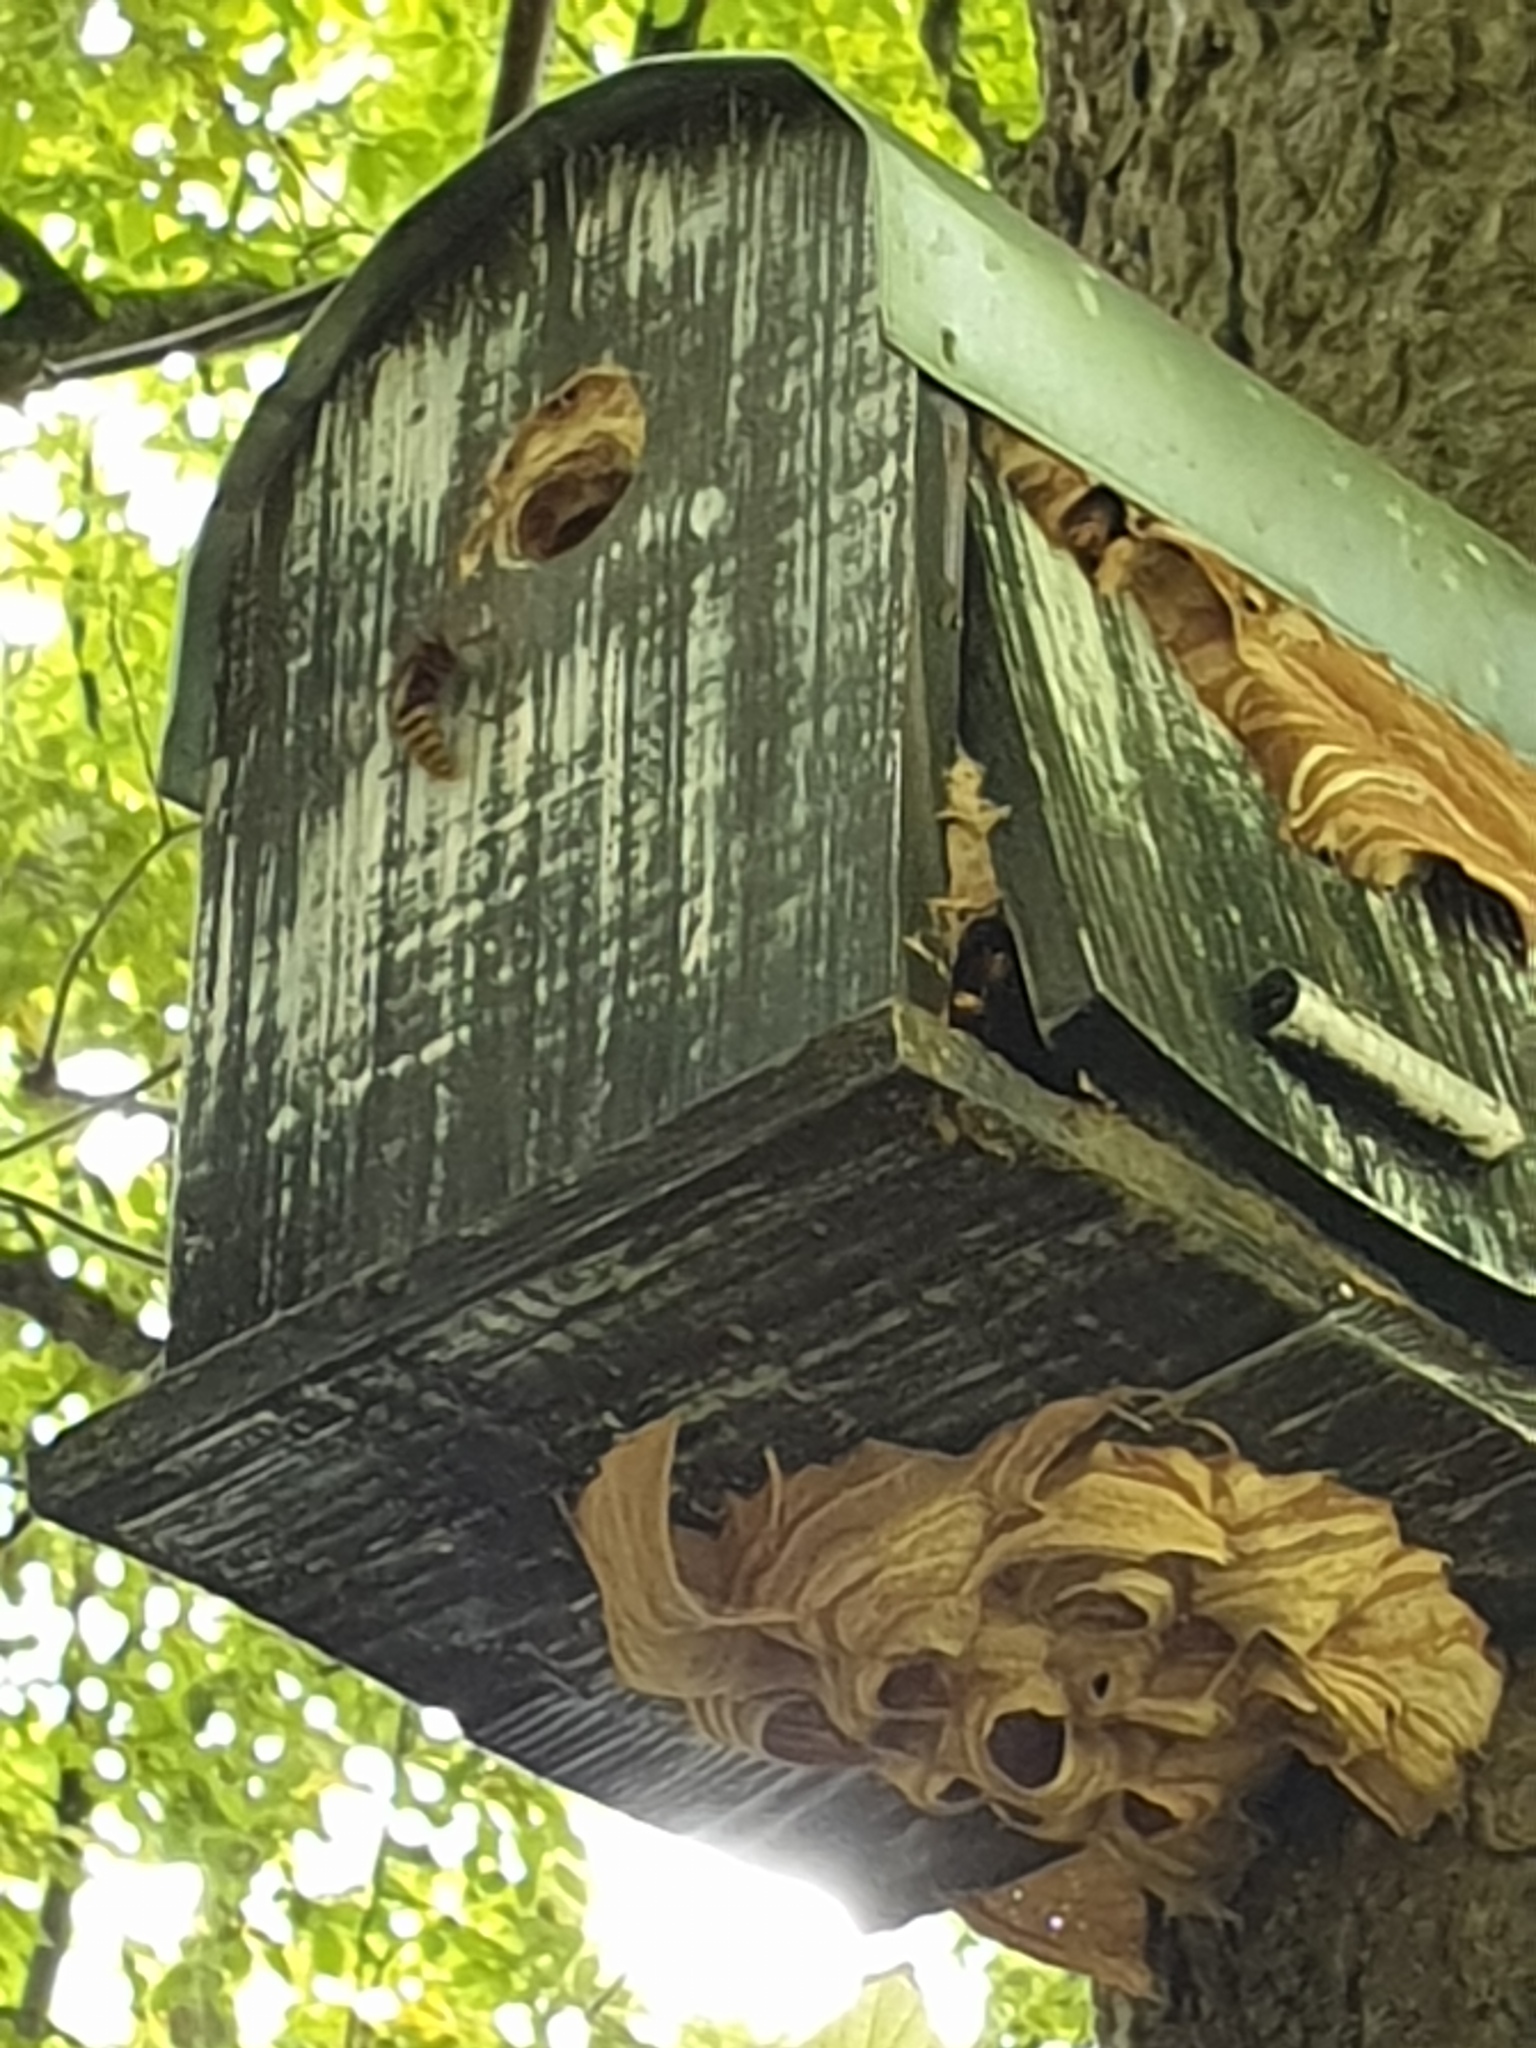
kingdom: Animalia
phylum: Arthropoda
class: Insecta
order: Hymenoptera
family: Vespidae
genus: Vespa
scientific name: Vespa crabro
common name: Hornet
